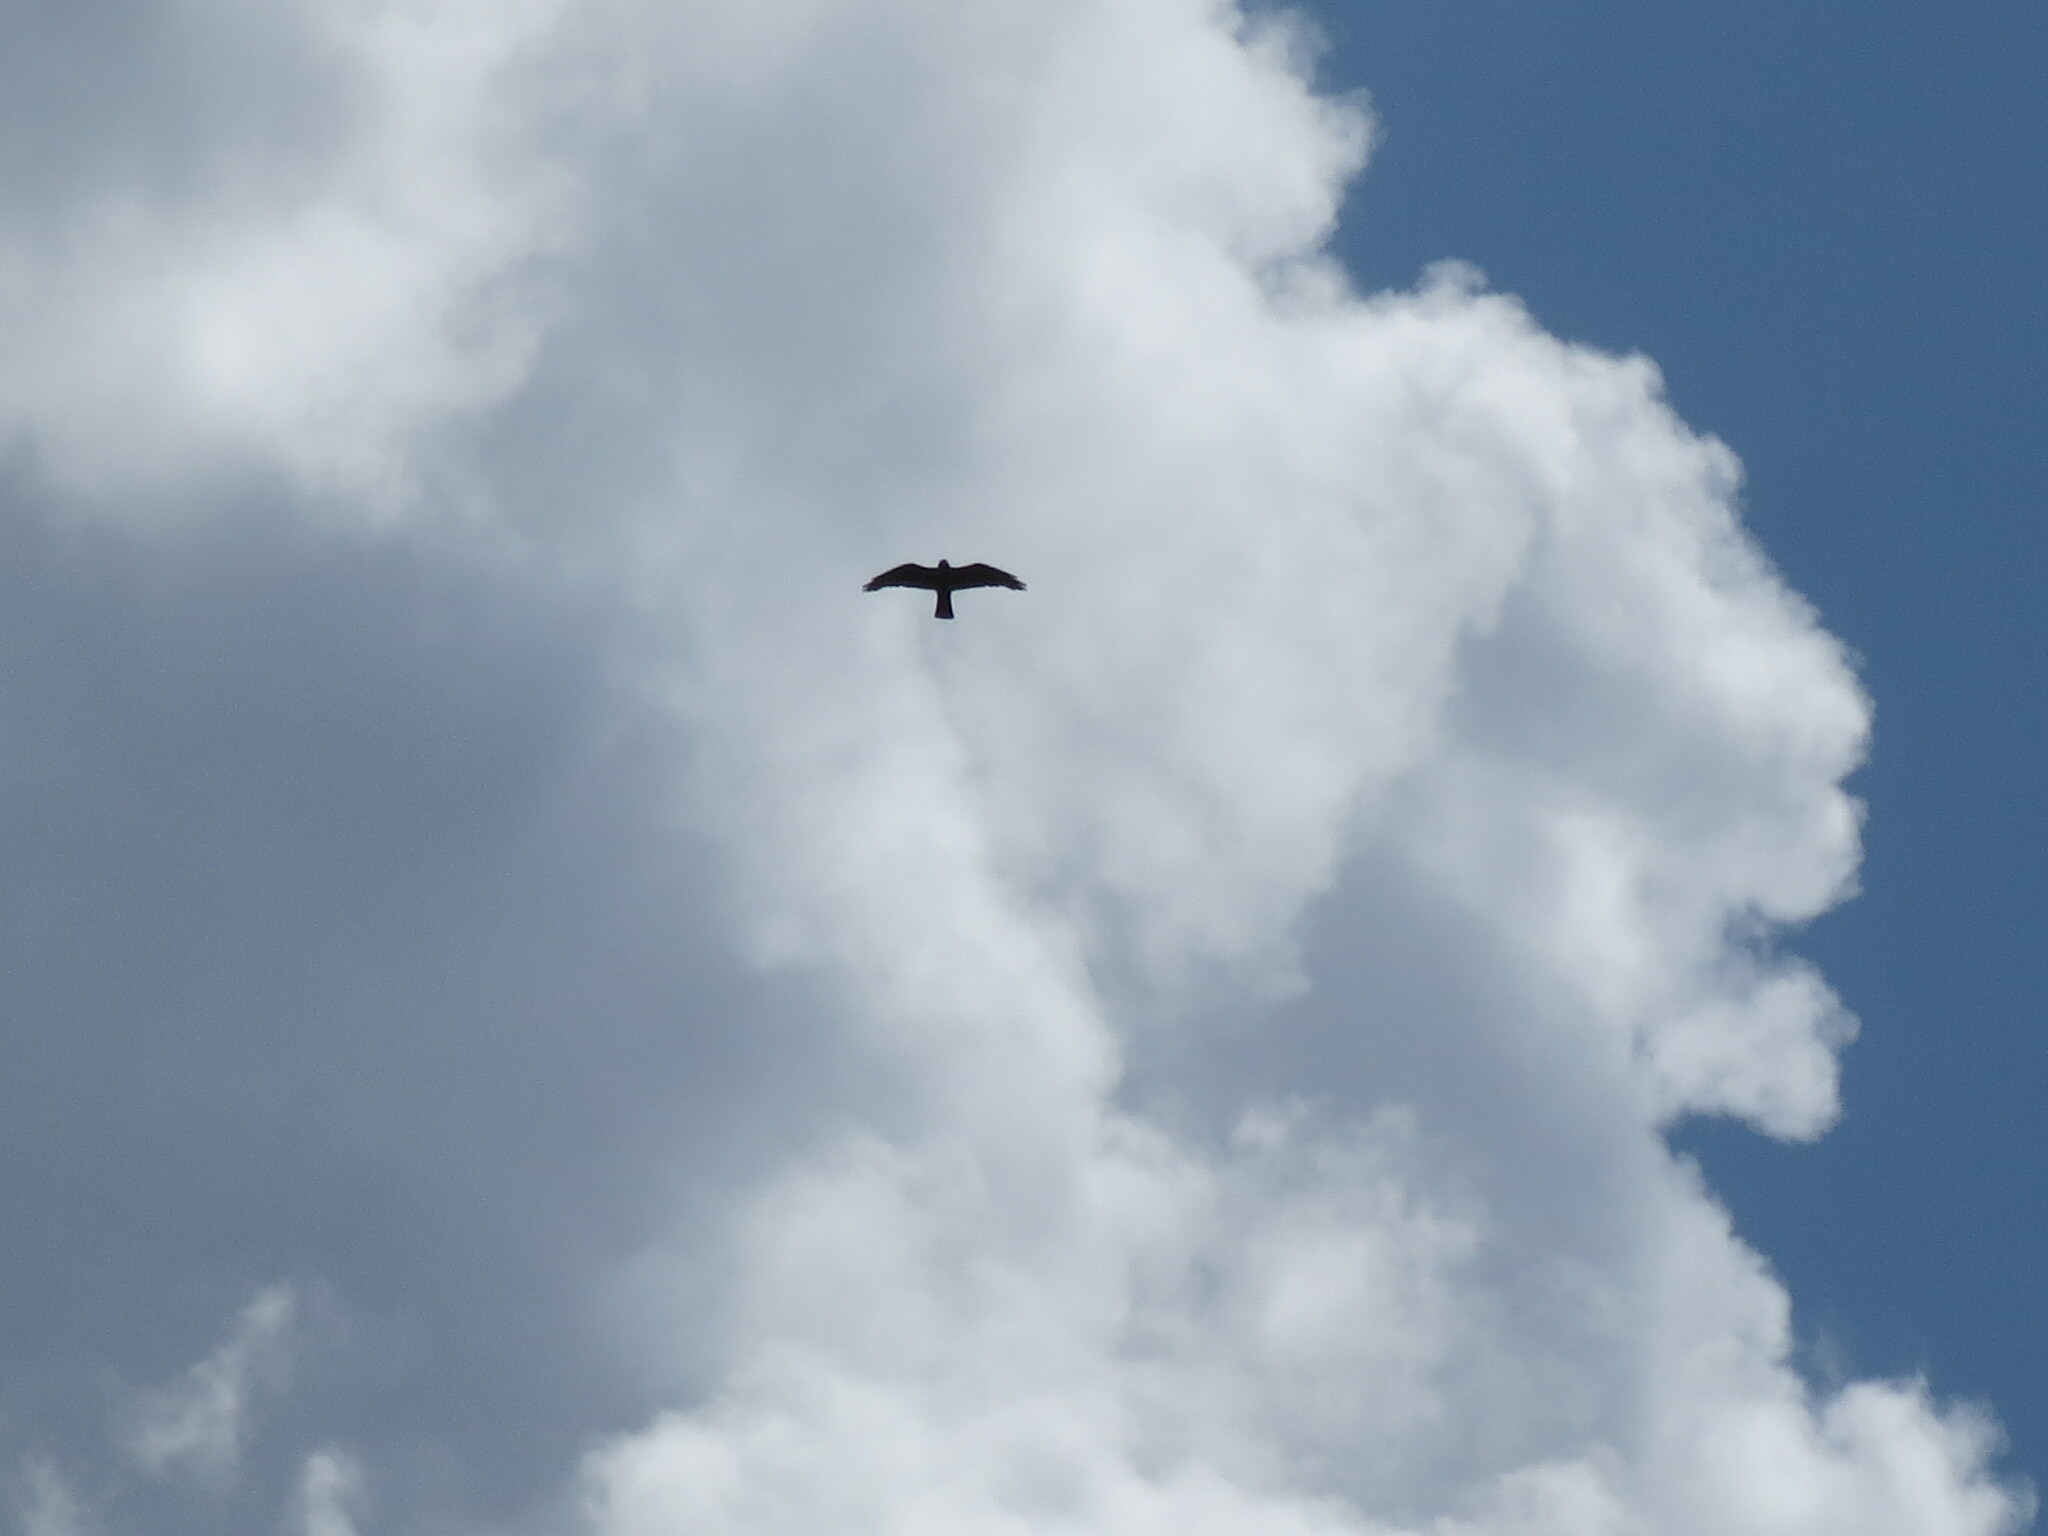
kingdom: Animalia
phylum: Chordata
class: Aves
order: Accipitriformes
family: Accipitridae
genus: Ictinia
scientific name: Ictinia mississippiensis
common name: Mississippi kite
